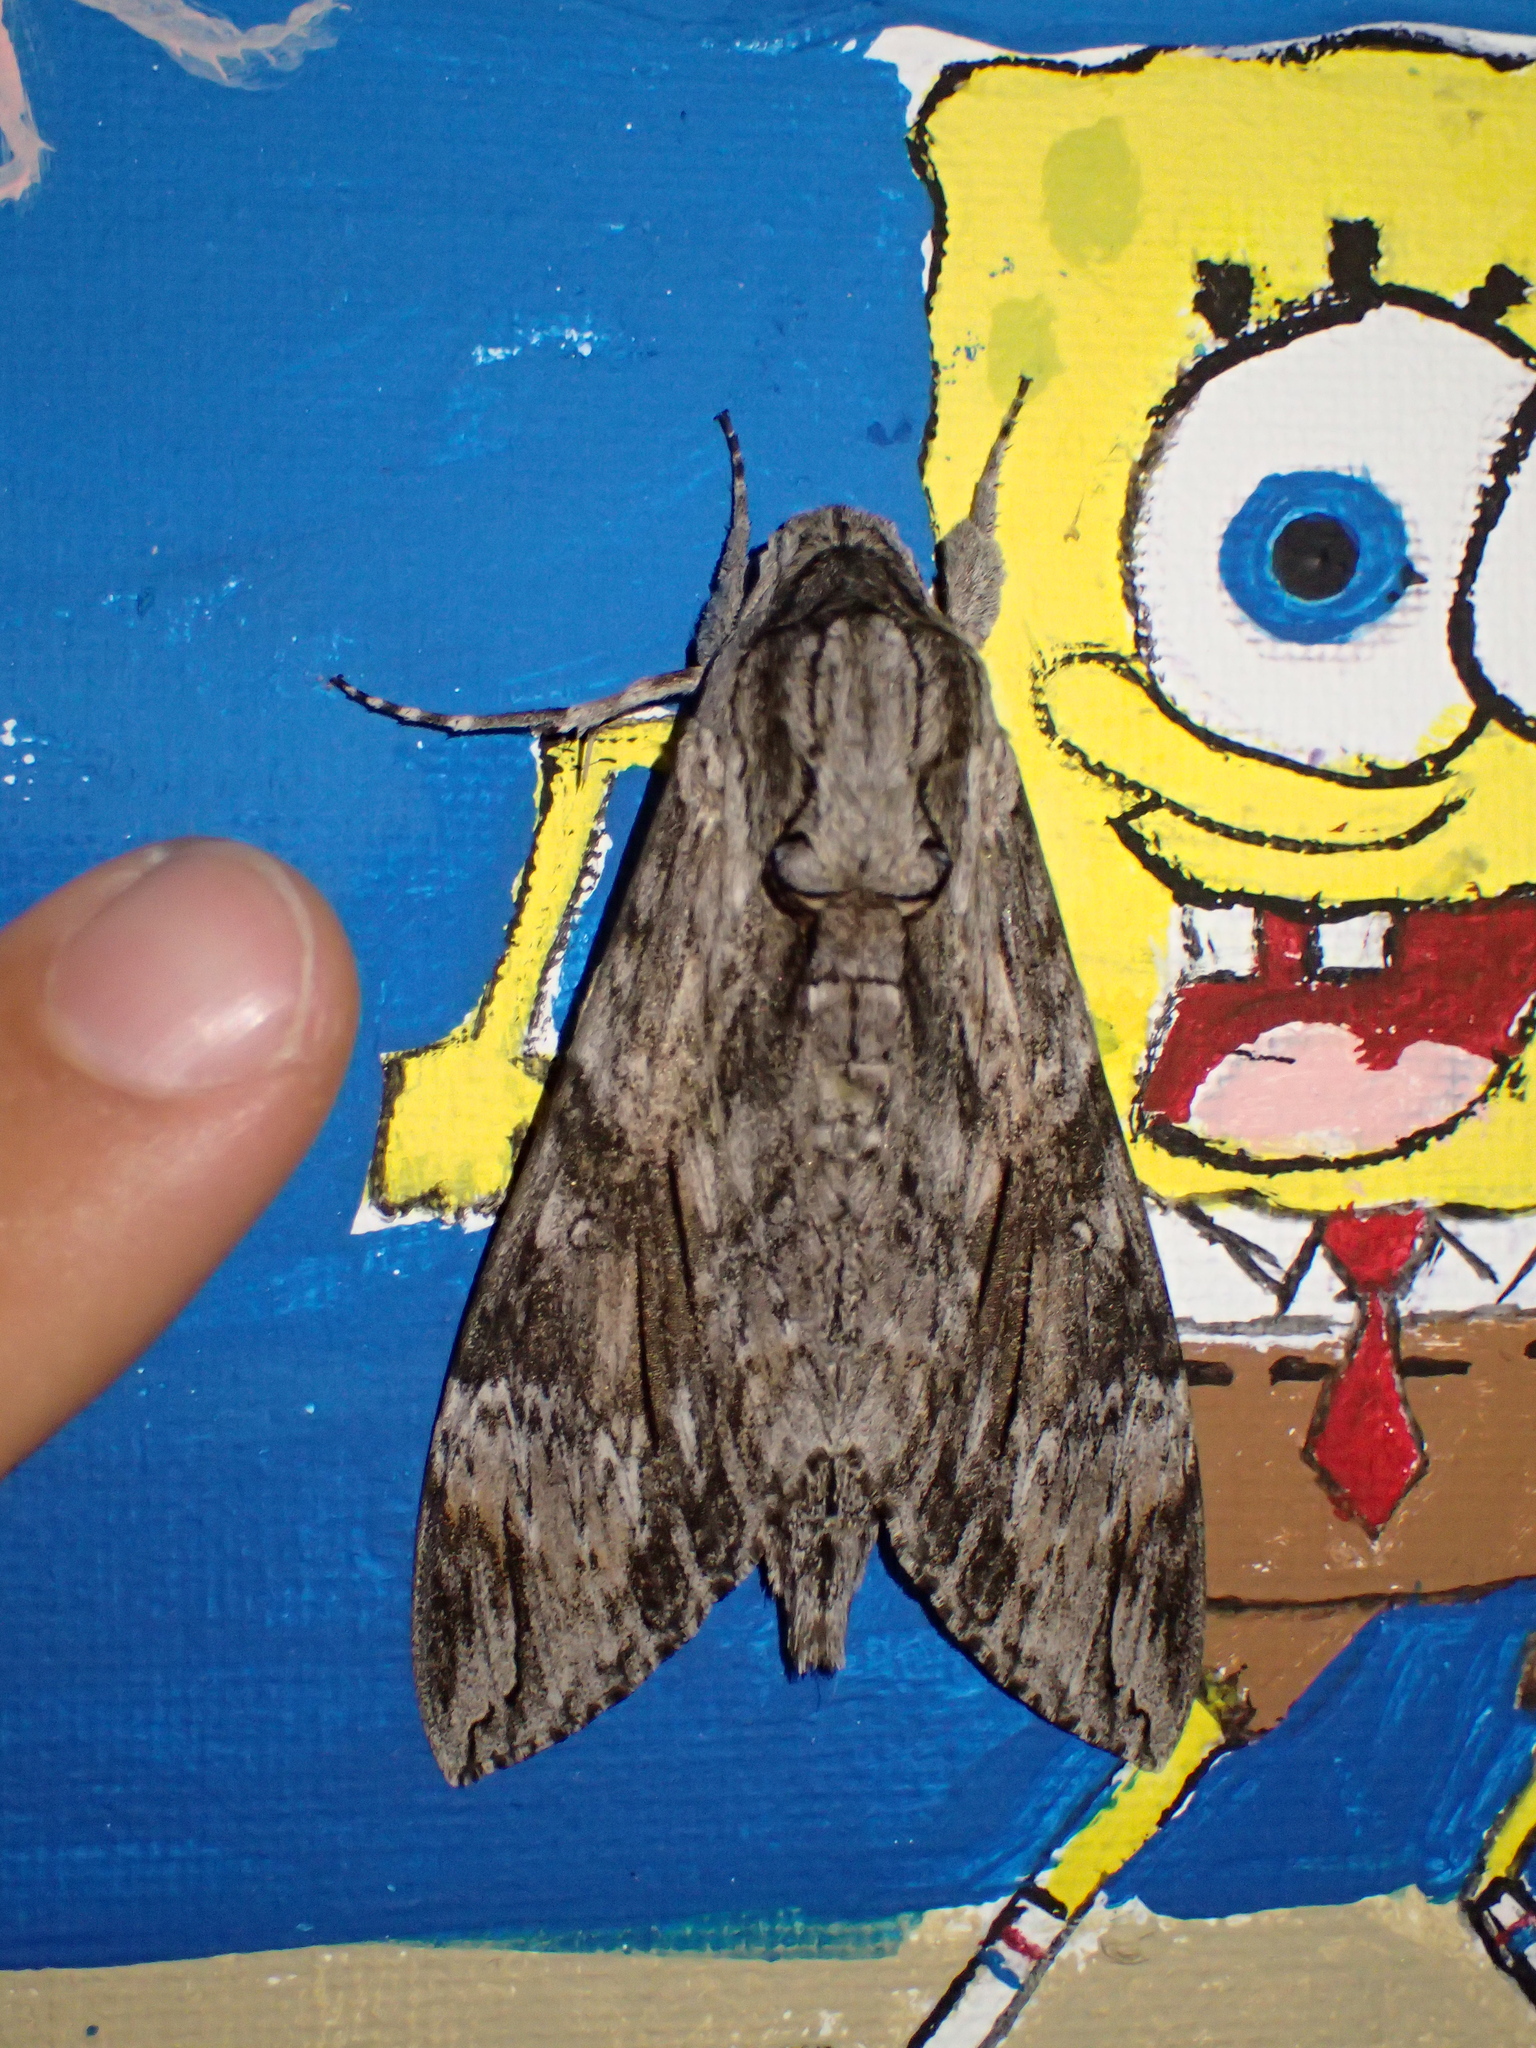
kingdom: Animalia
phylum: Arthropoda
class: Insecta
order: Lepidoptera
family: Sphingidae
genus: Agrius
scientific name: Agrius convolvuli
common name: Convolvulus hawkmoth
